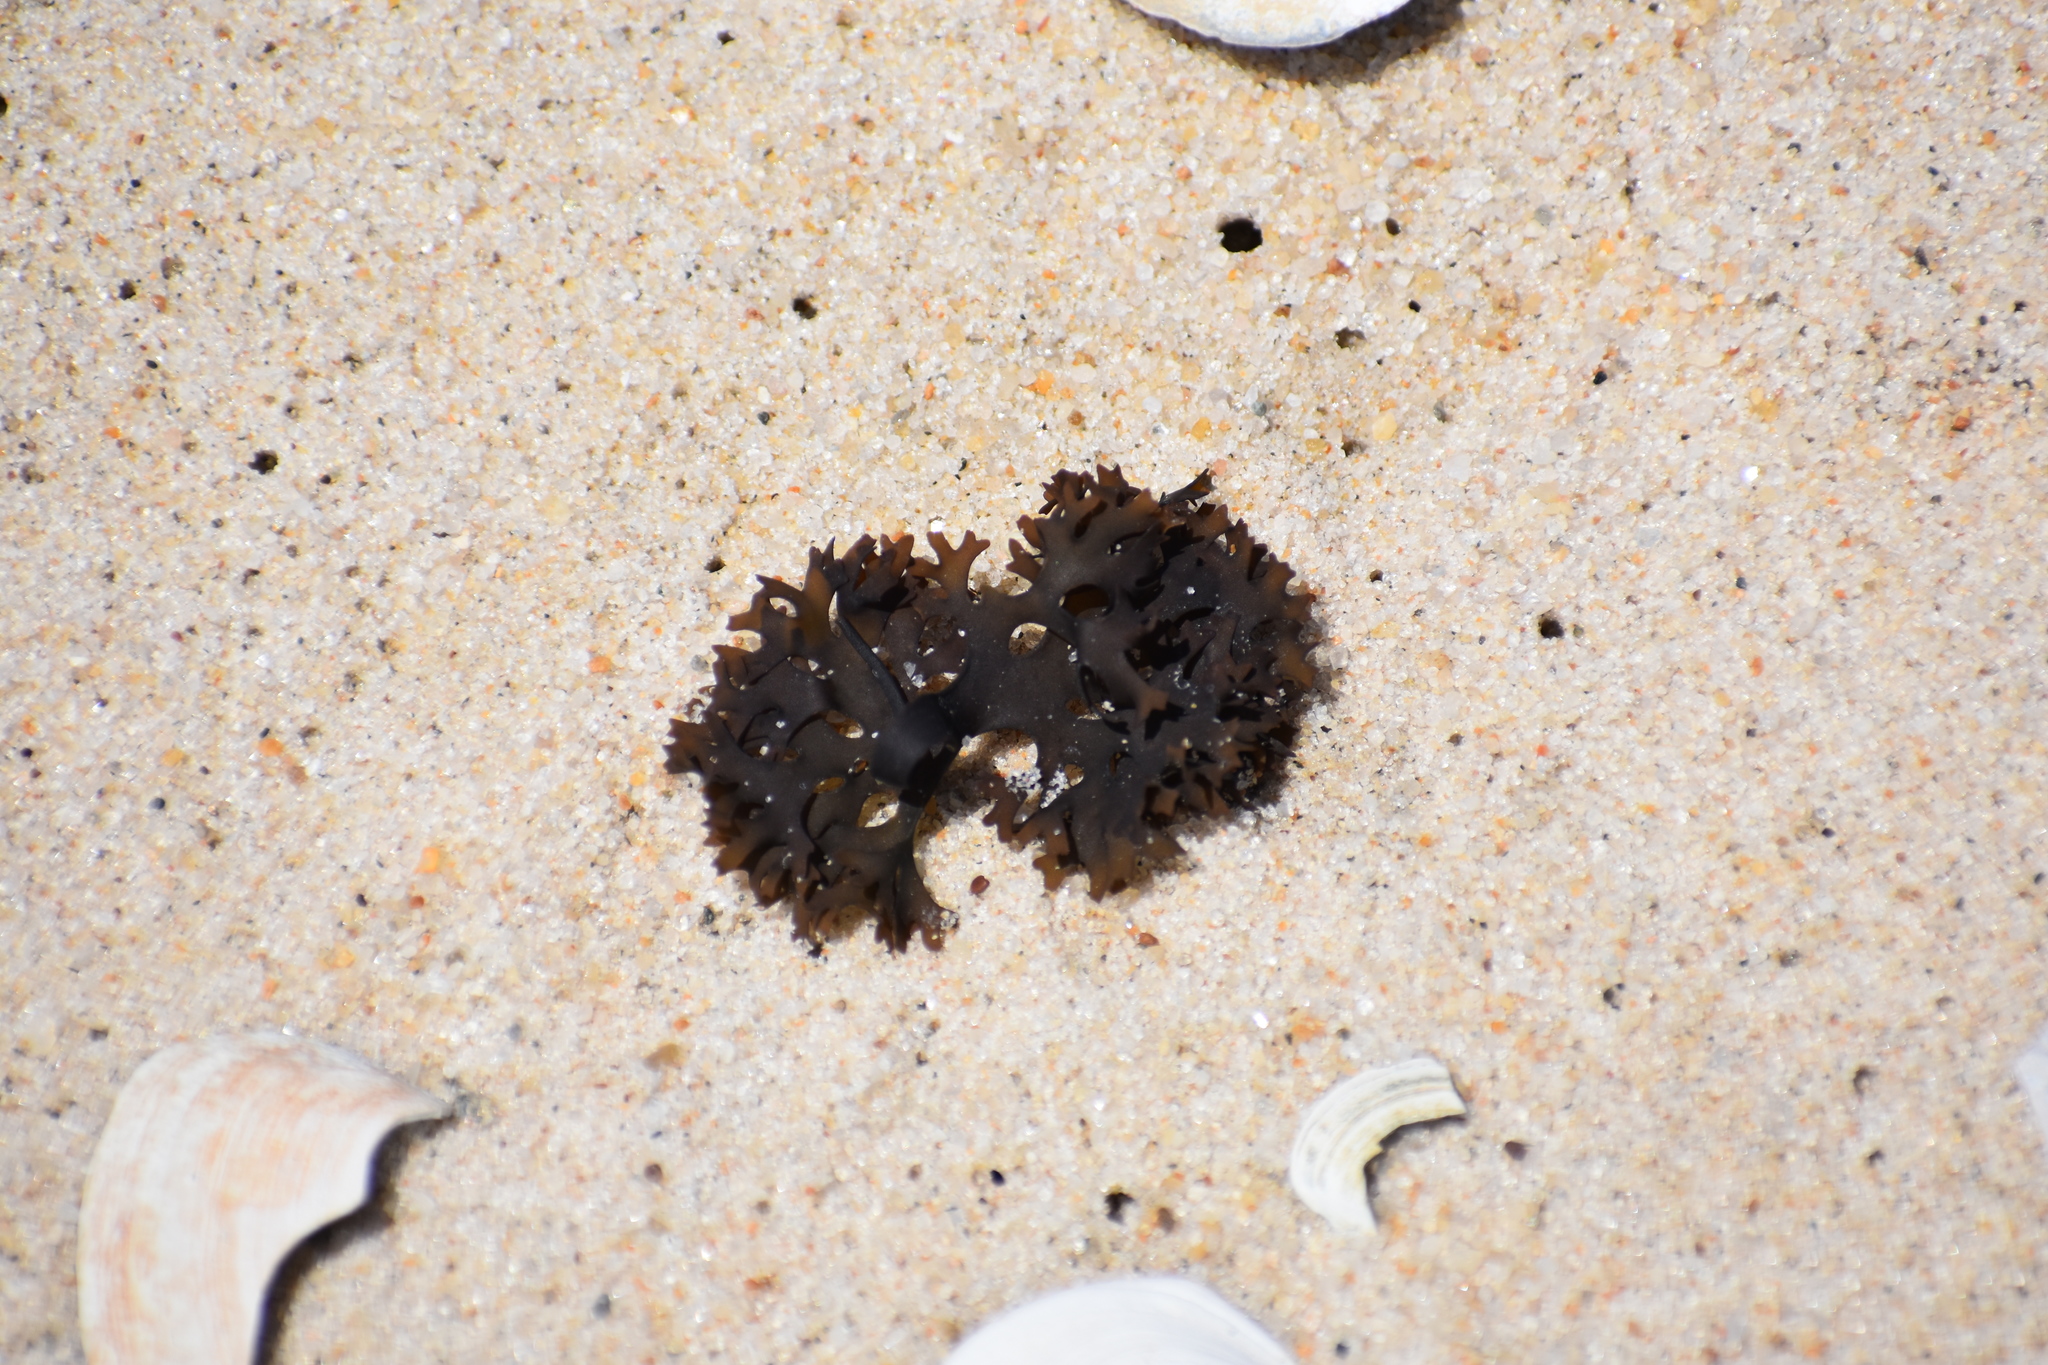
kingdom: Plantae
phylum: Rhodophyta
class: Florideophyceae
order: Gigartinales
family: Gigartinaceae
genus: Chondrus
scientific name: Chondrus crispus
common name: Carrageen
